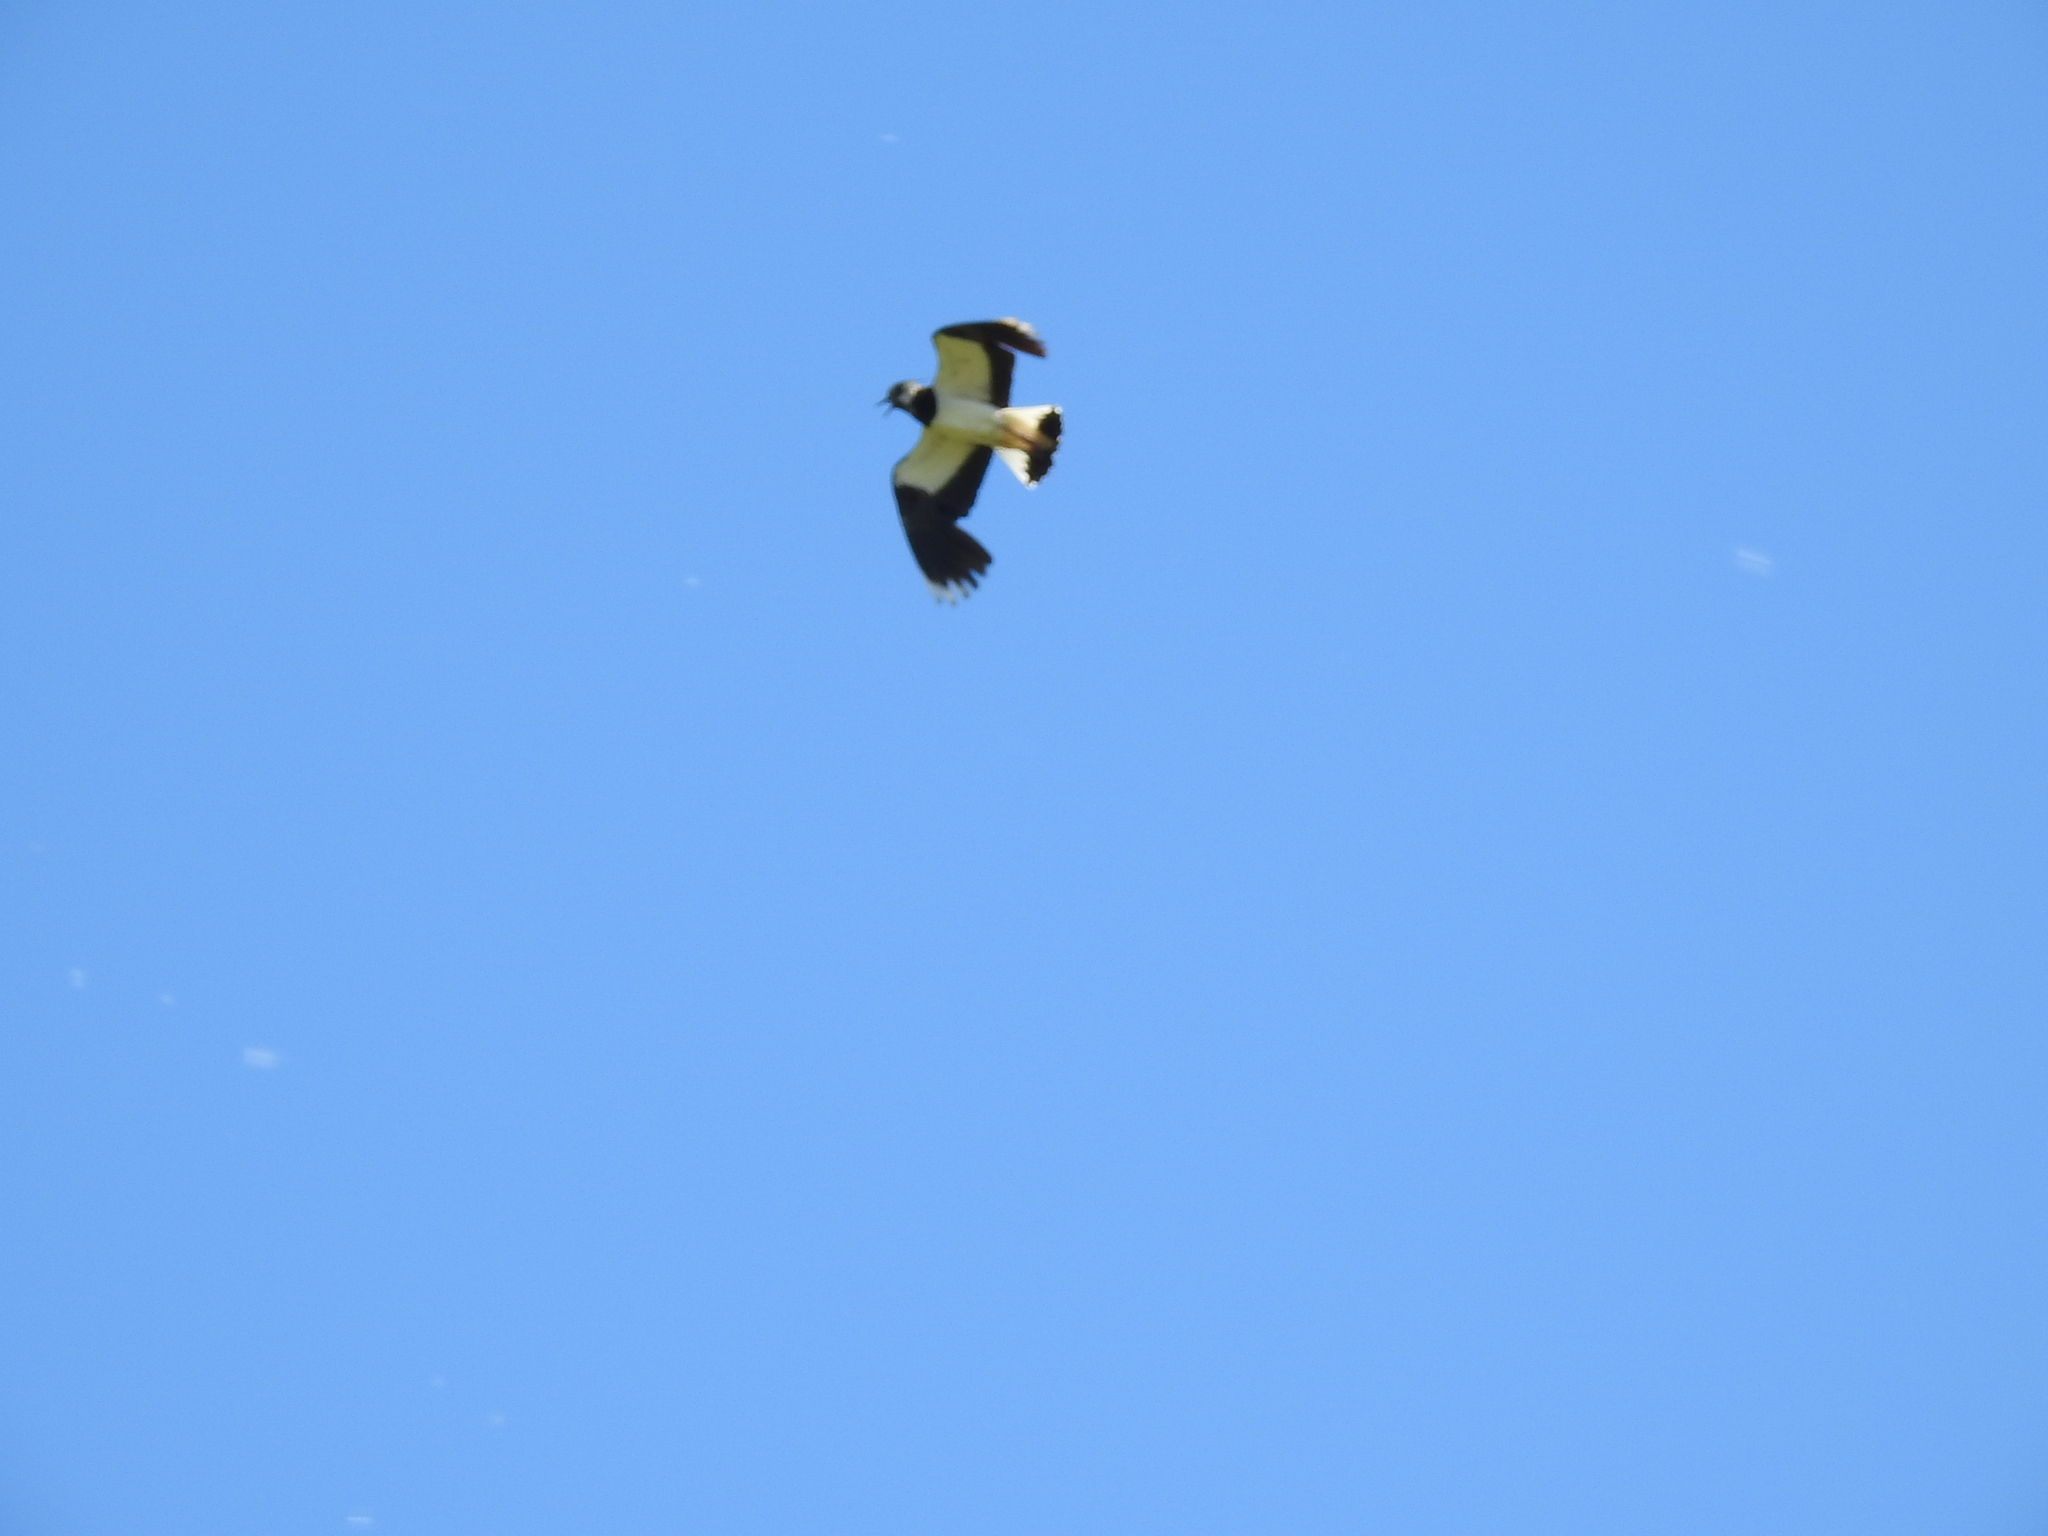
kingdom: Animalia
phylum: Chordata
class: Aves
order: Charadriiformes
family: Charadriidae
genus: Vanellus
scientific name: Vanellus vanellus
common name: Northern lapwing
